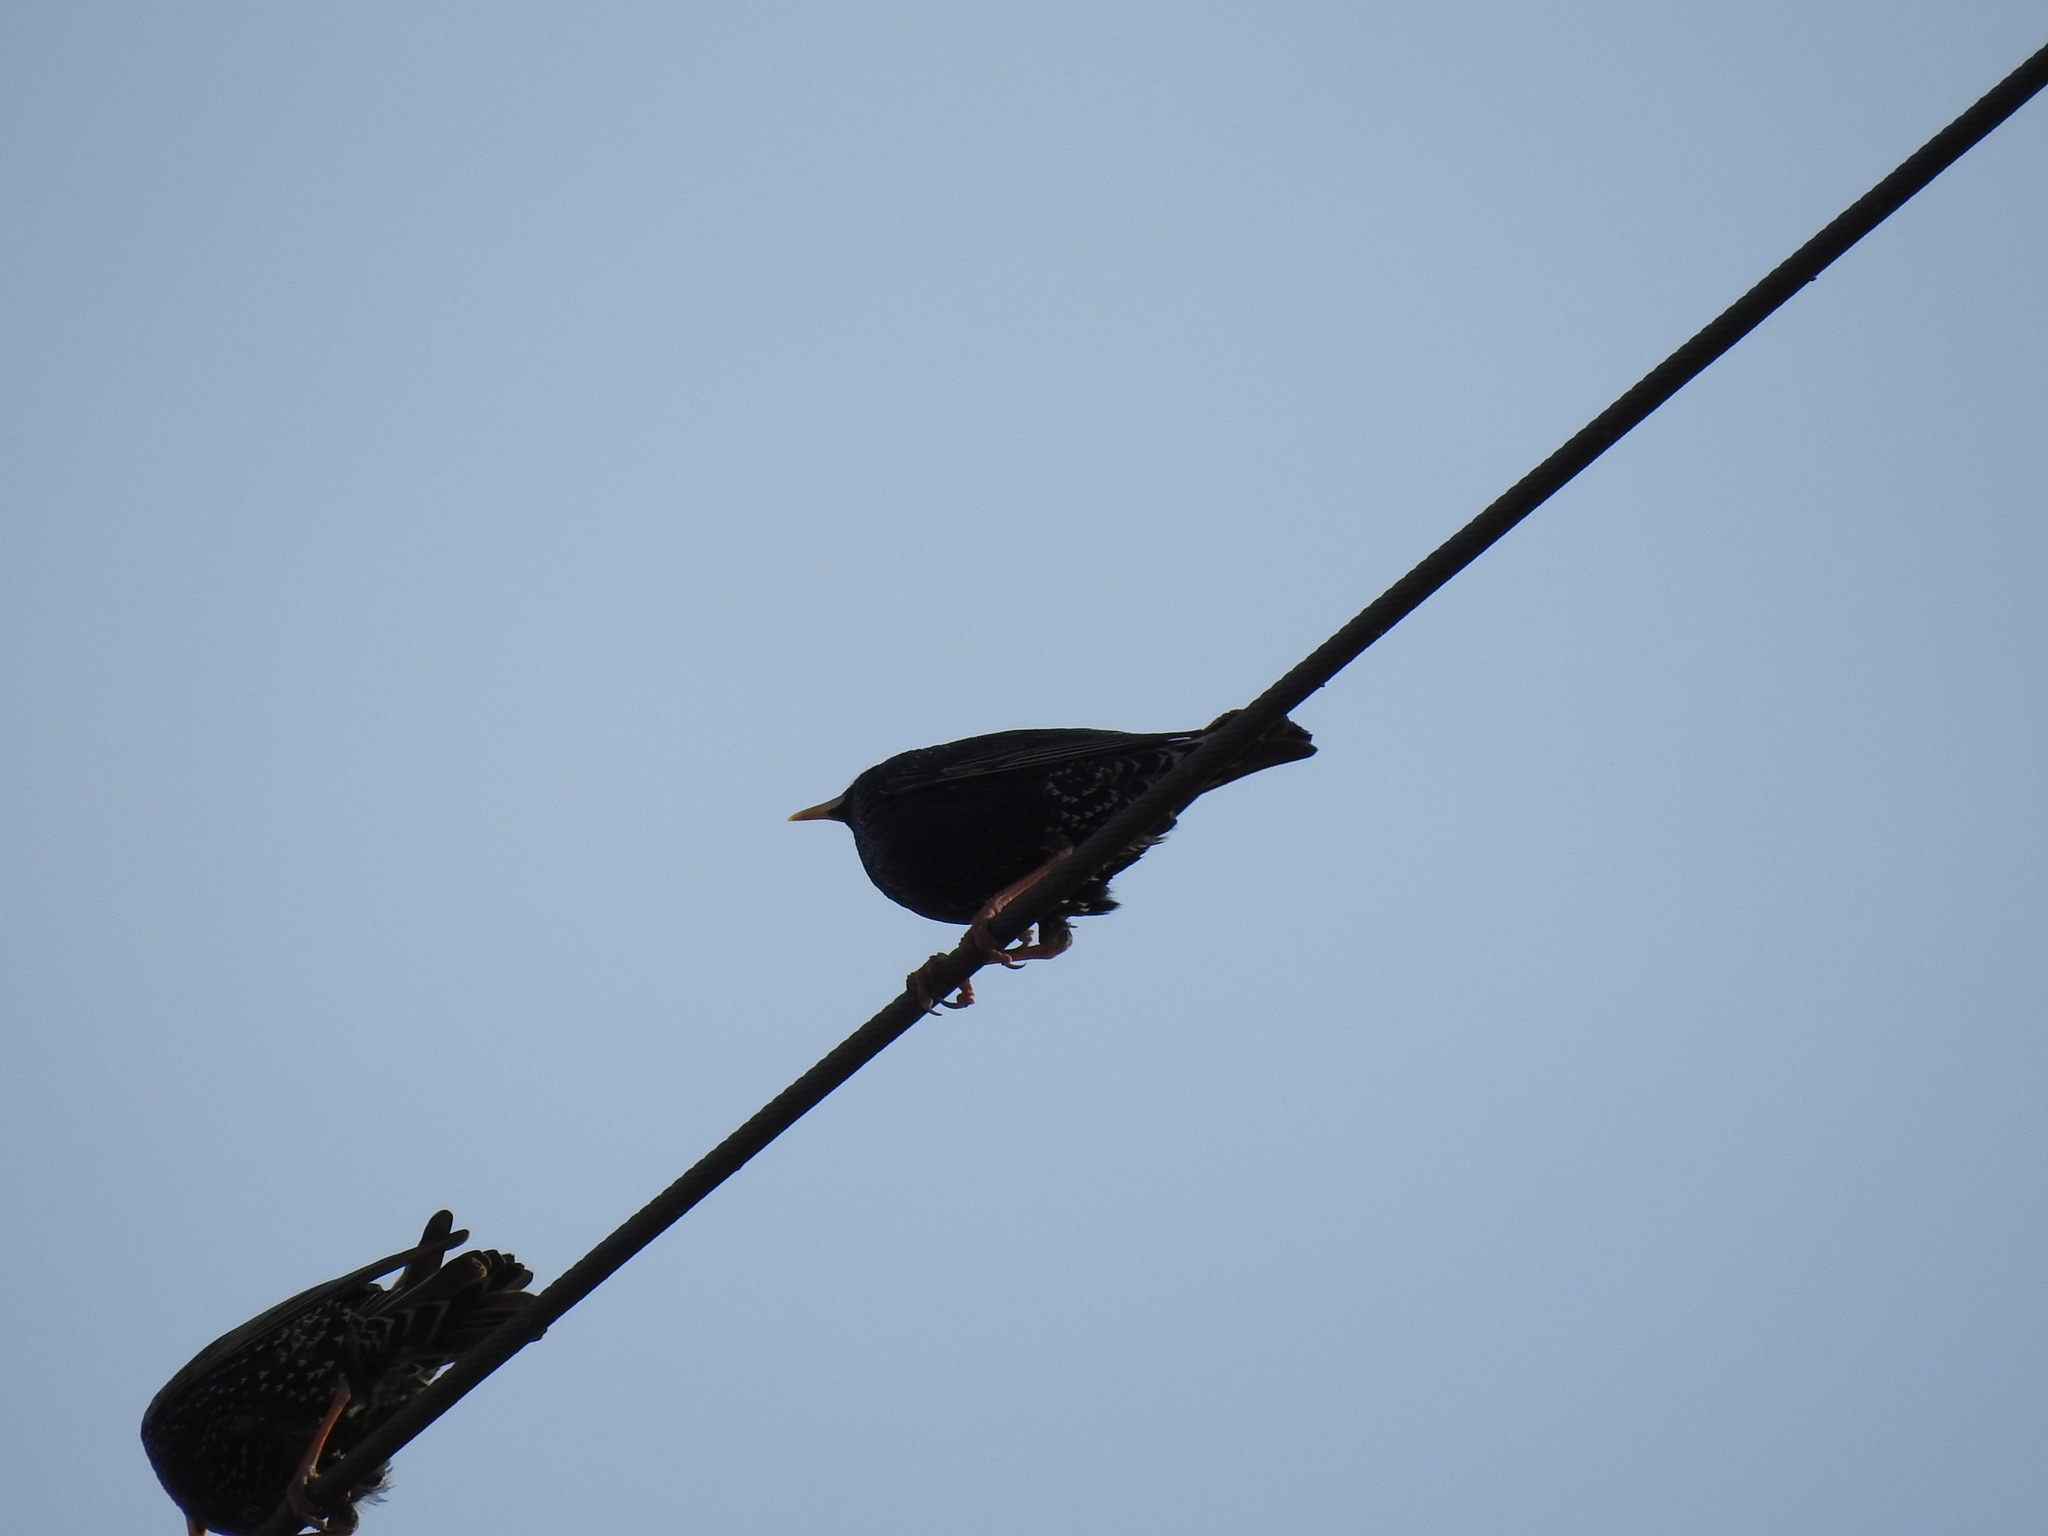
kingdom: Animalia
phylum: Chordata
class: Aves
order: Passeriformes
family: Sturnidae
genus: Sturnus
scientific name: Sturnus vulgaris
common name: Common starling
